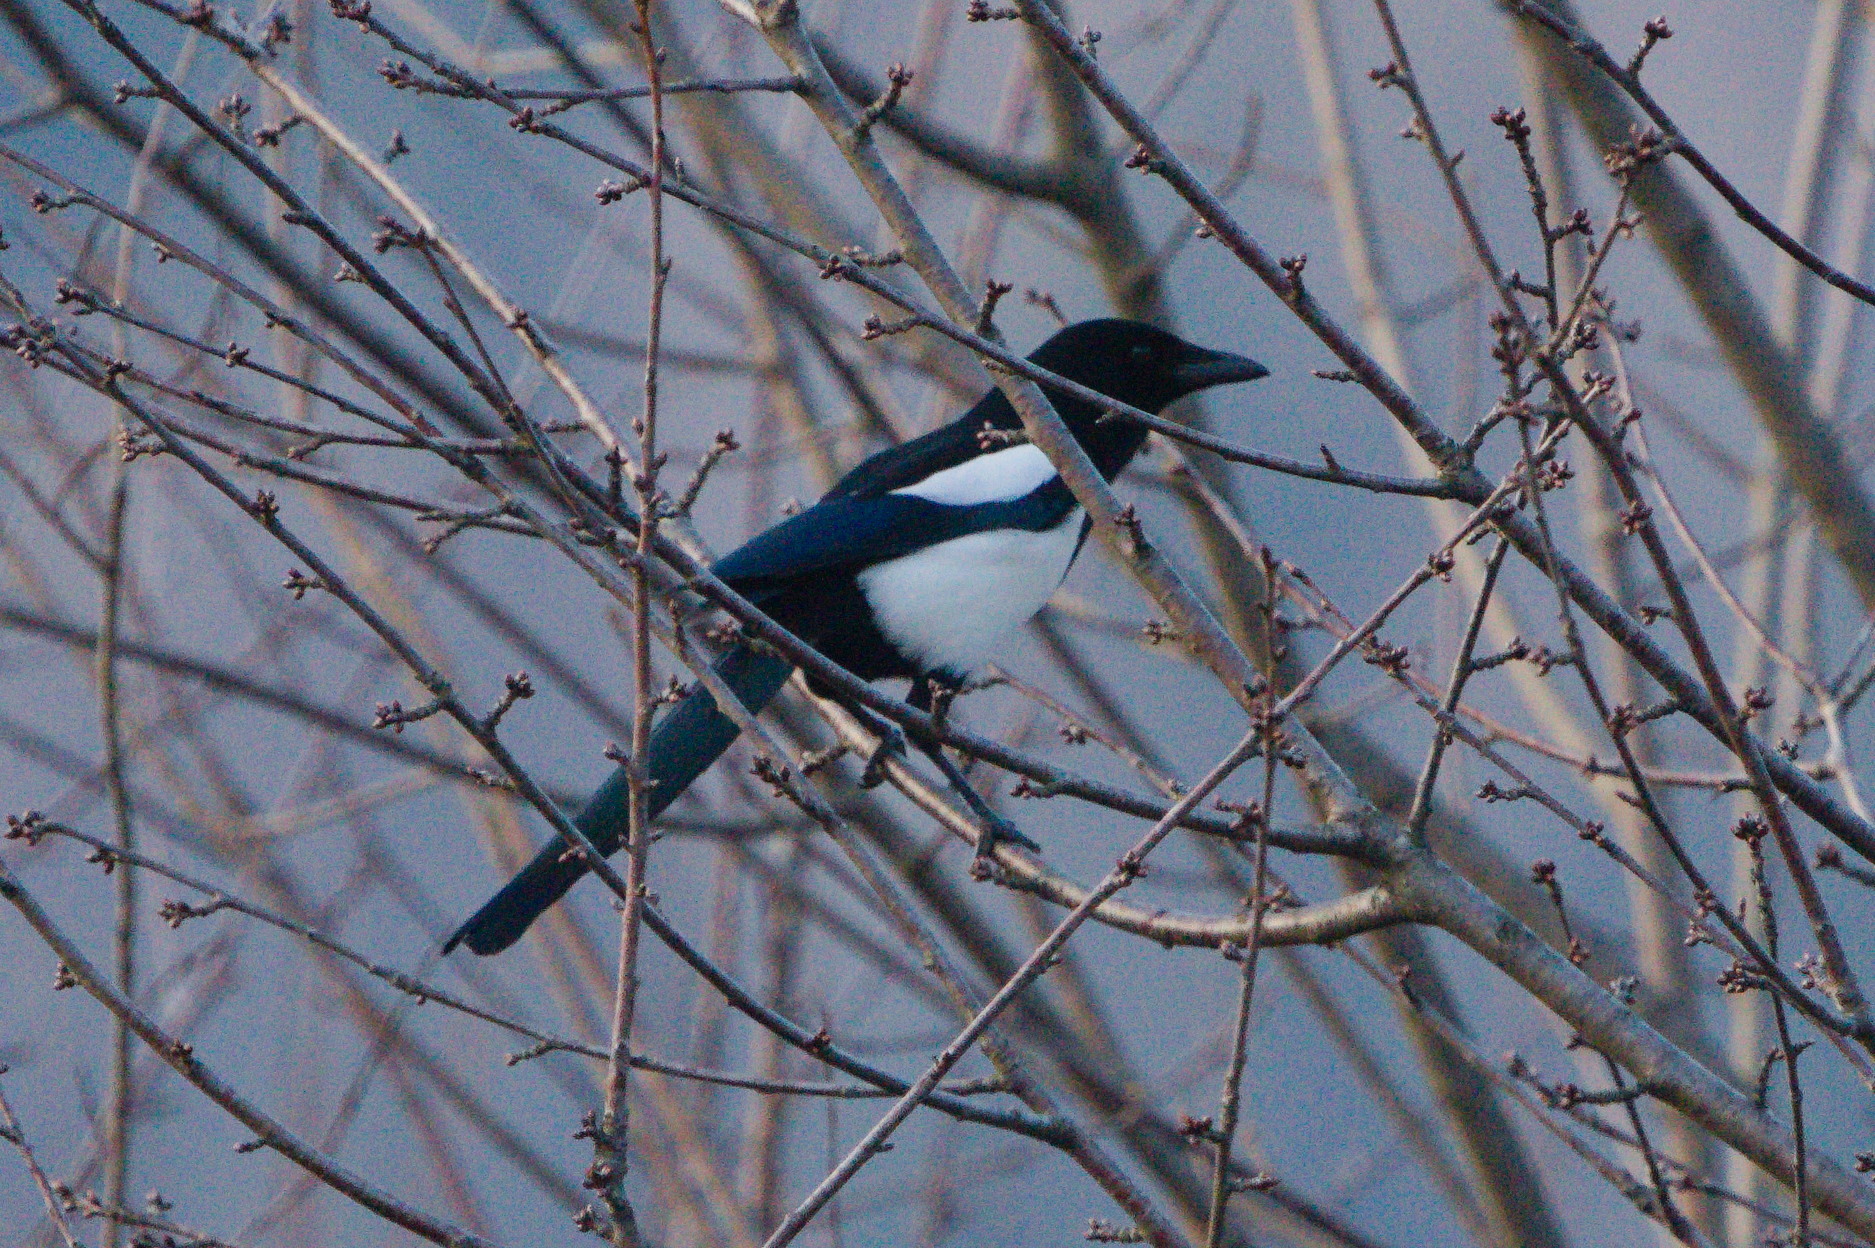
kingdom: Animalia
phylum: Chordata
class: Aves
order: Passeriformes
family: Corvidae
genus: Pica
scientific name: Pica pica
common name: Eurasian magpie
